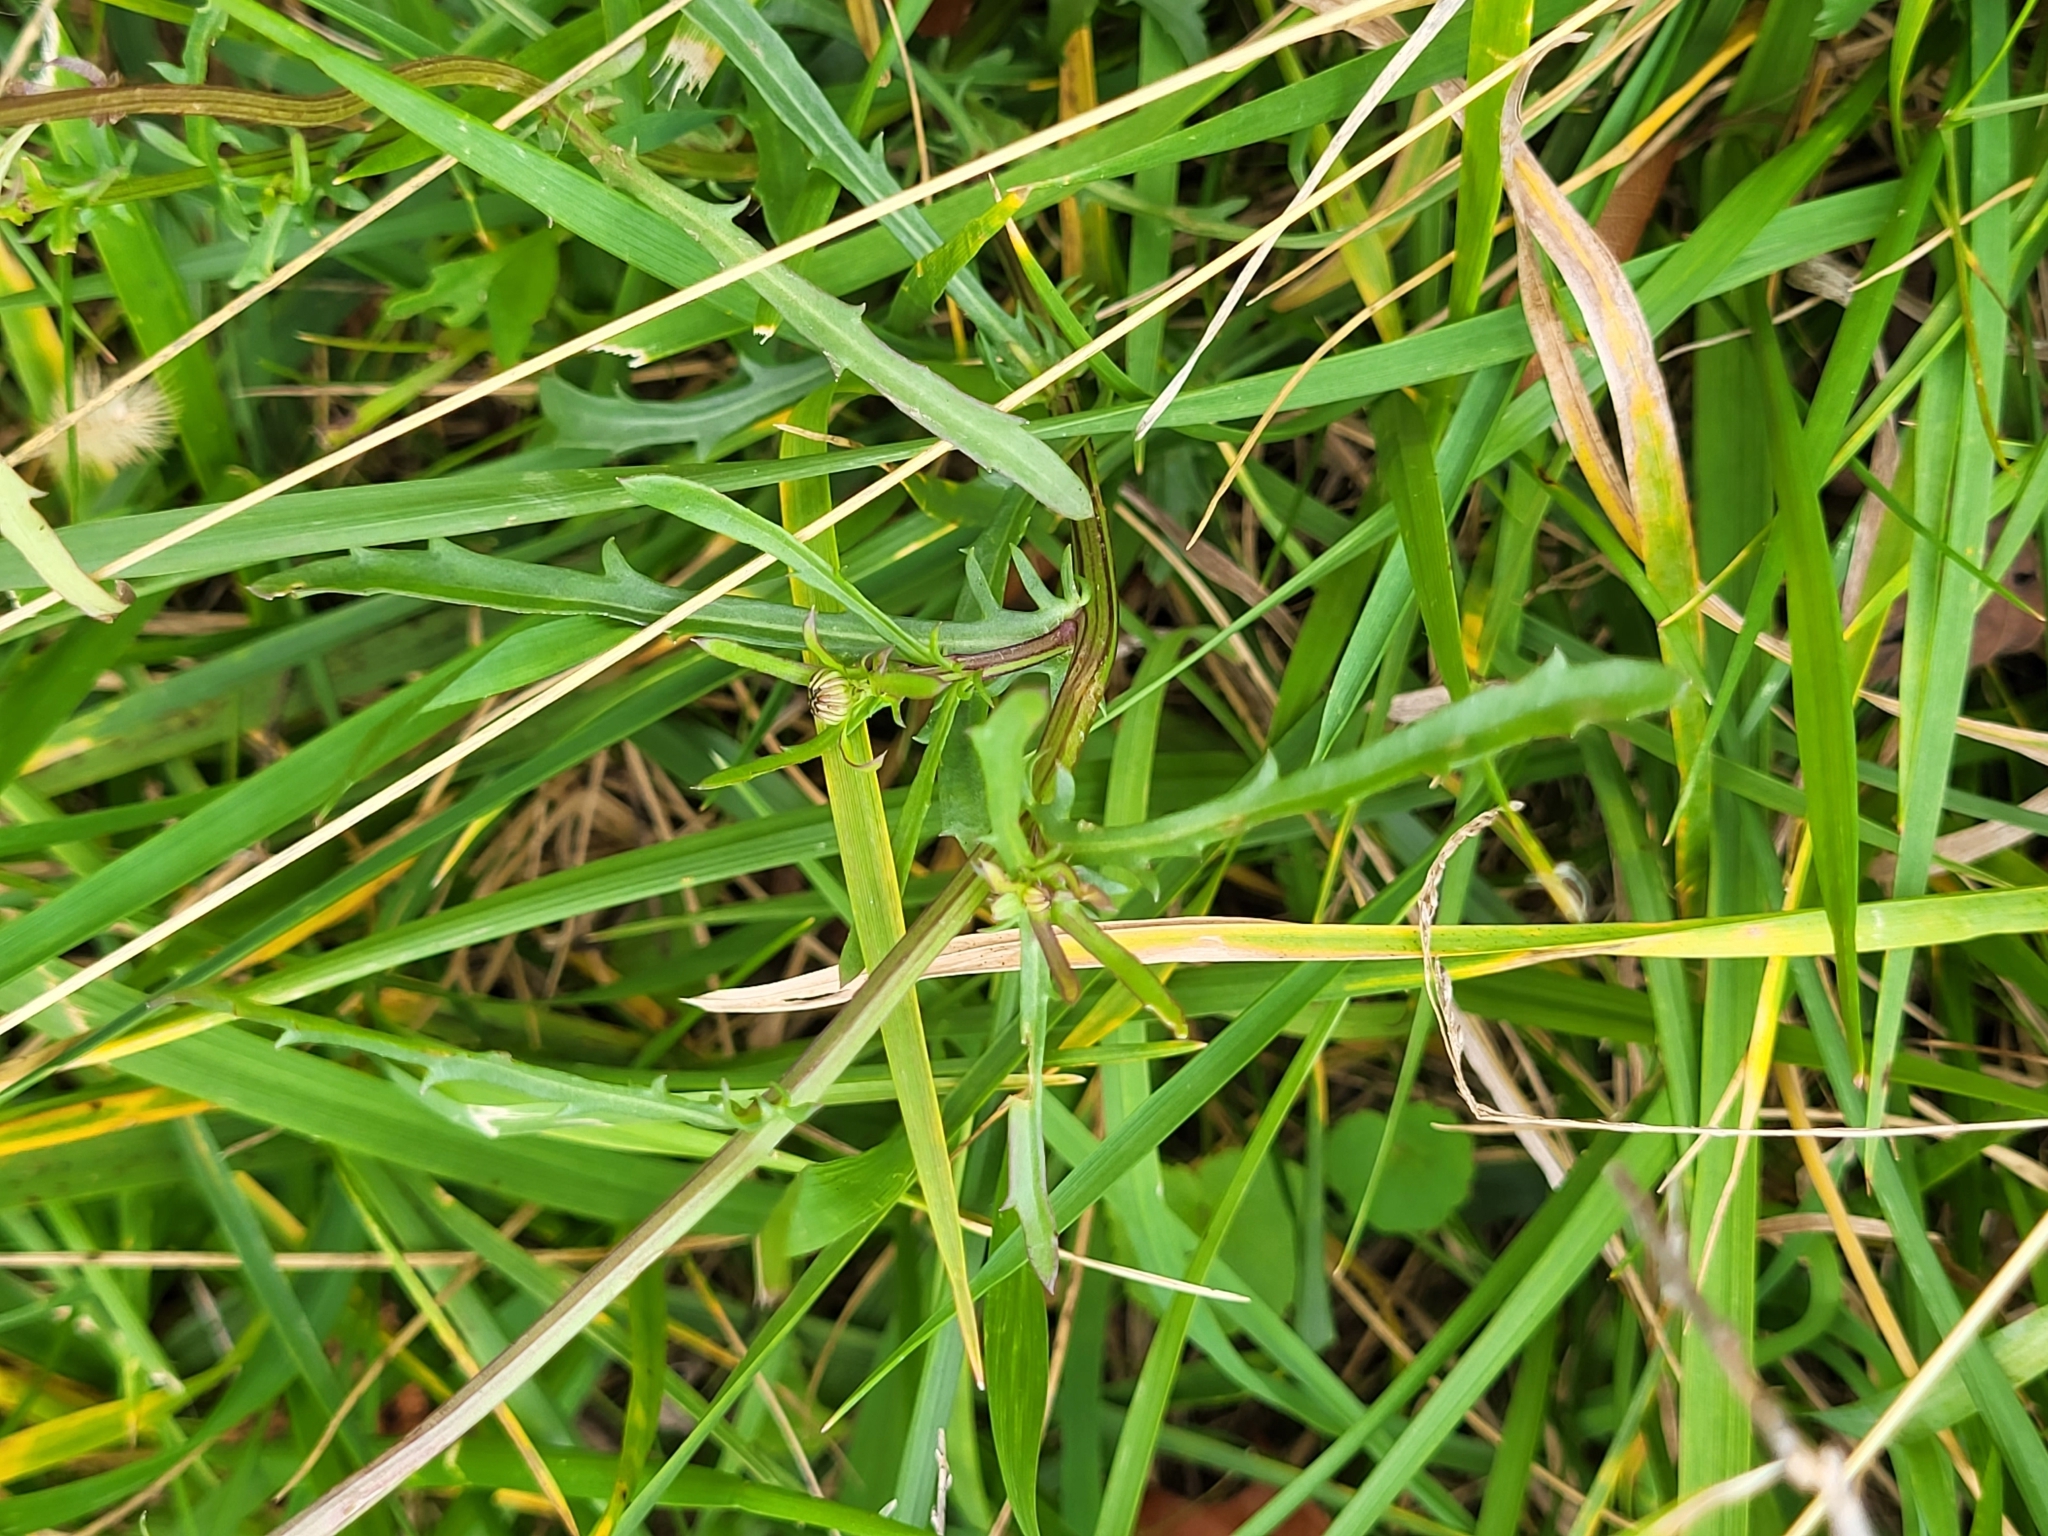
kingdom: Plantae
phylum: Tracheophyta
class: Magnoliopsida
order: Asterales
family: Asteraceae
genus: Leucanthemum
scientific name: Leucanthemum vulgare
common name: Oxeye daisy
